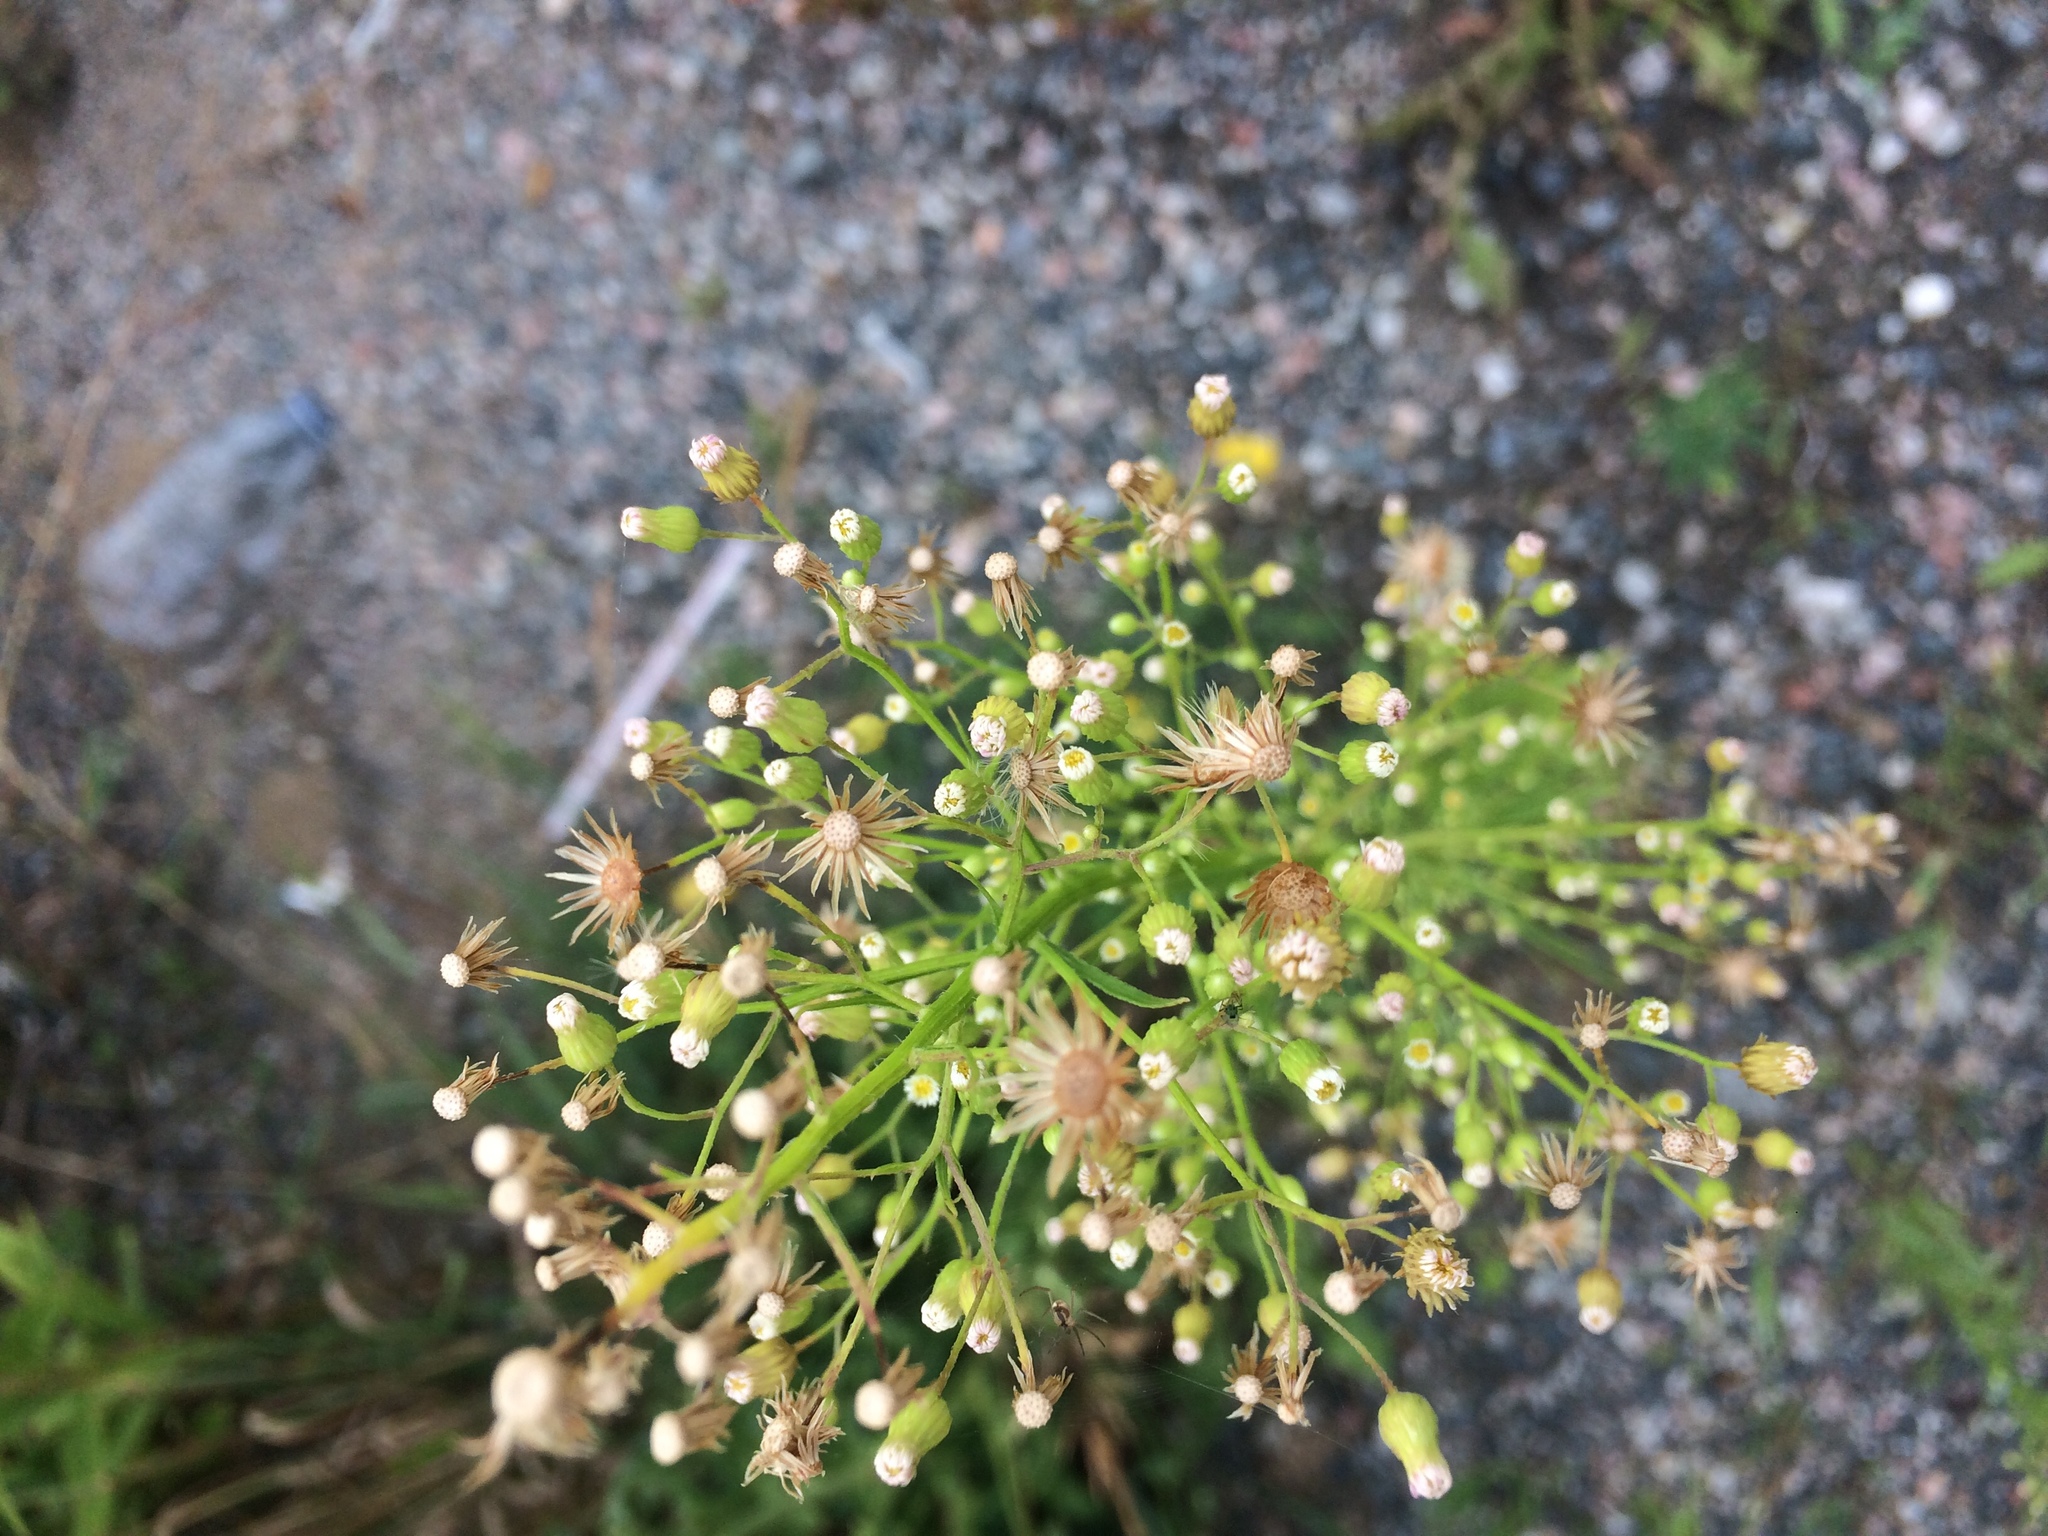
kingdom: Plantae
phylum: Tracheophyta
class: Magnoliopsida
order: Asterales
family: Asteraceae
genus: Erigeron
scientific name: Erigeron canadensis
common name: Canadian fleabane
